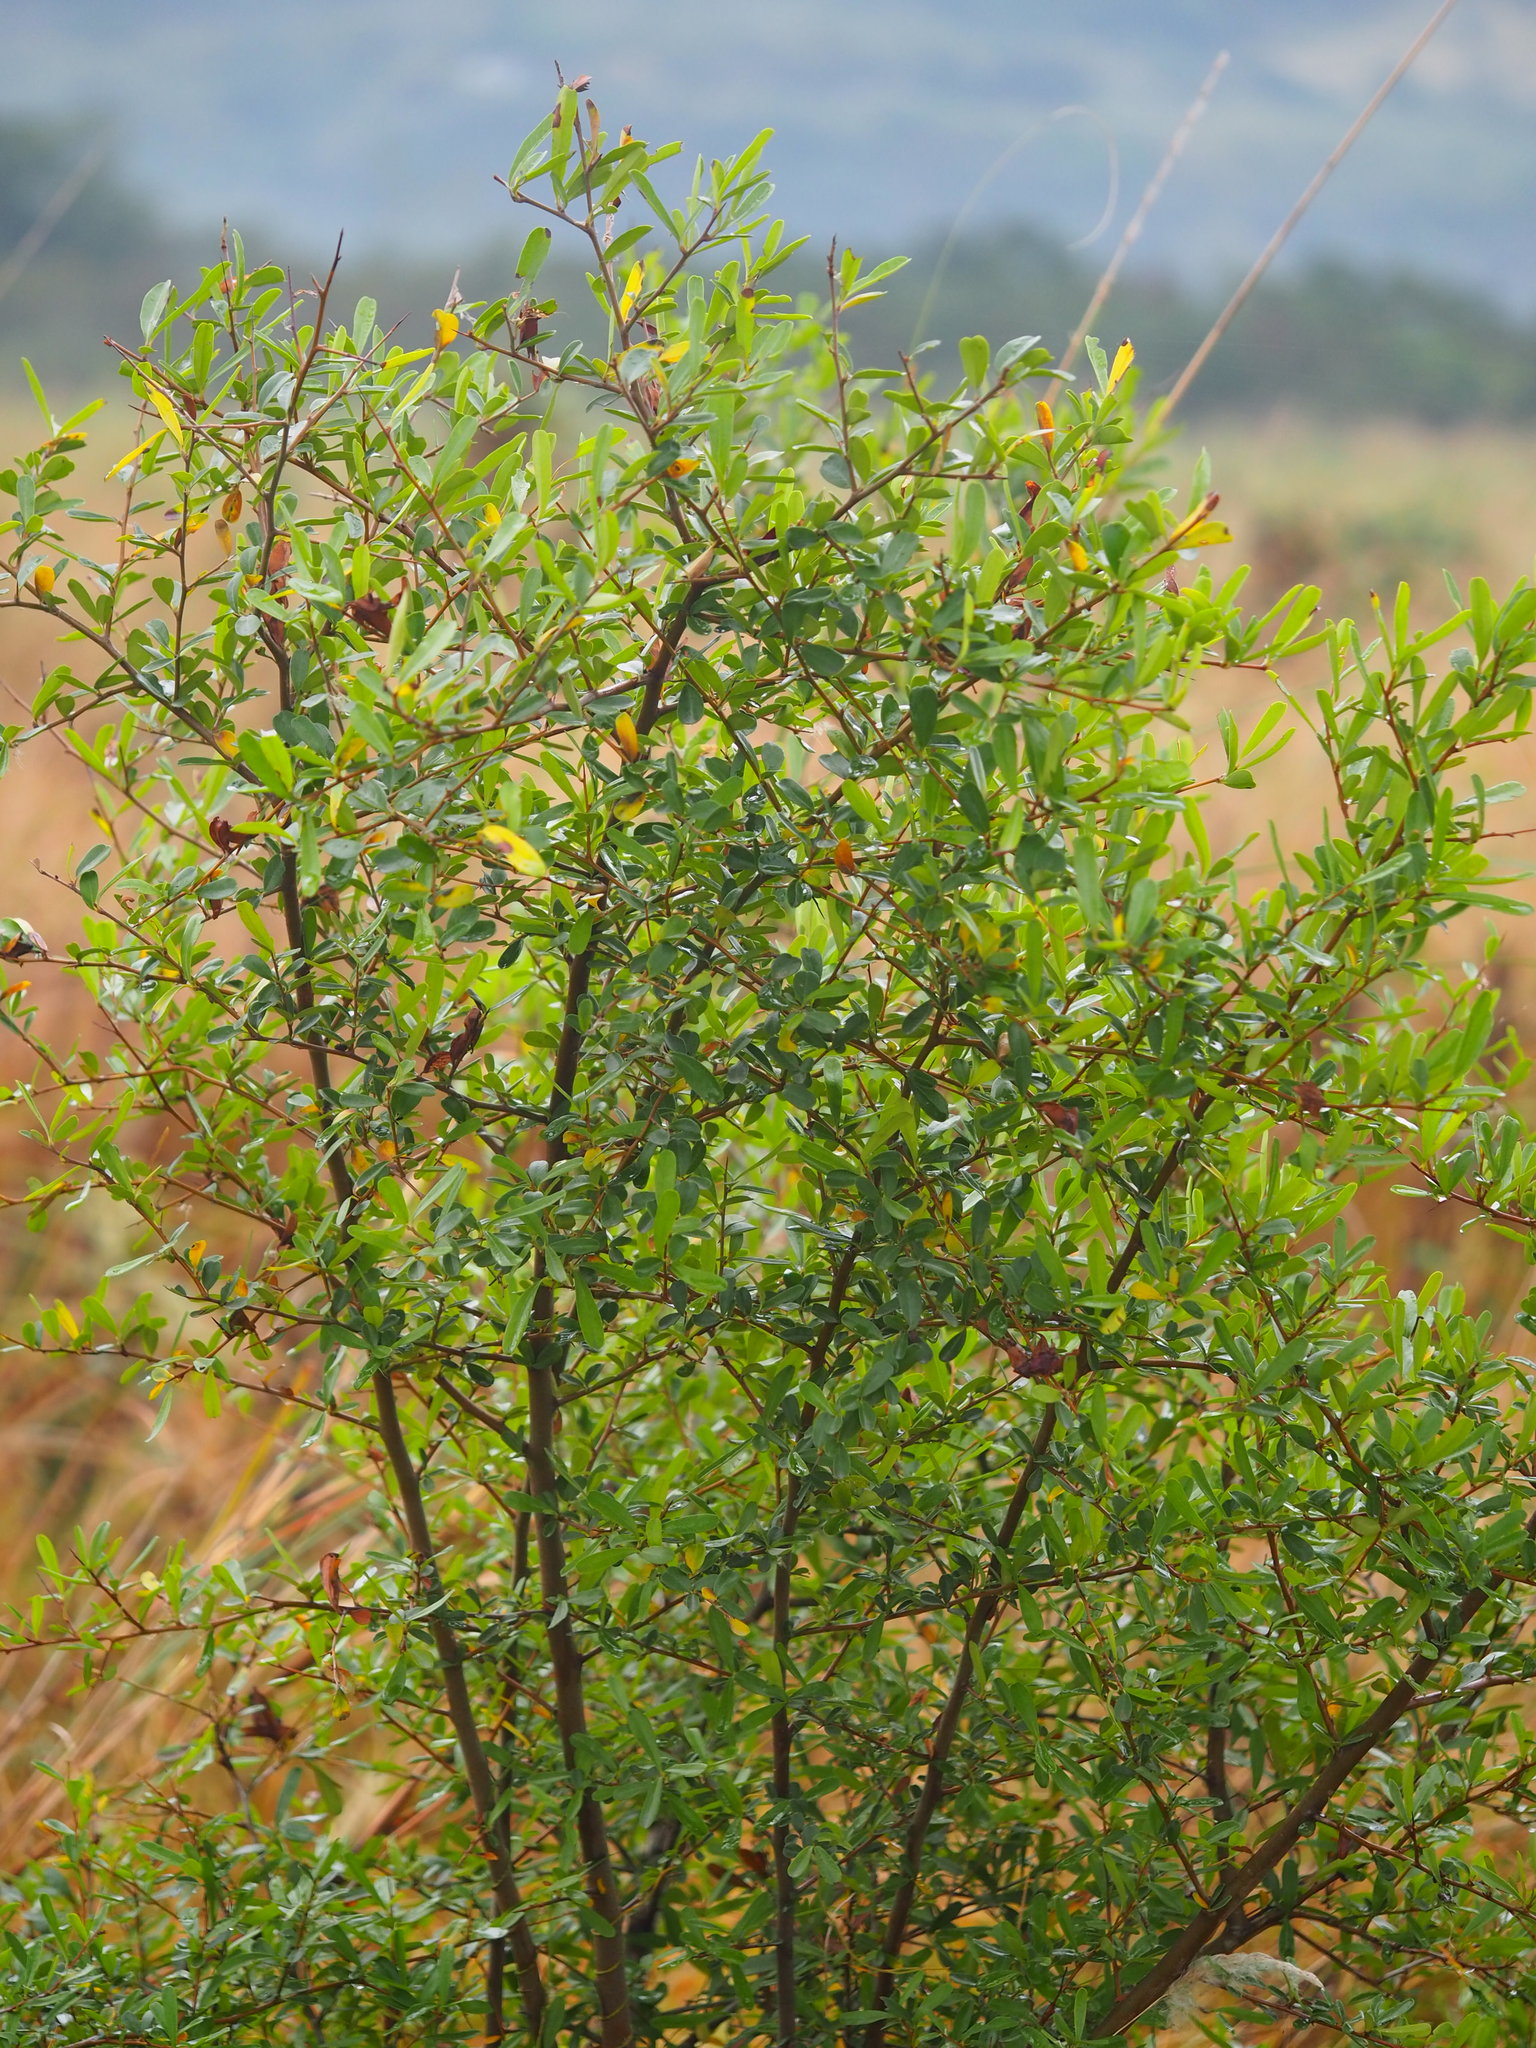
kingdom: Plantae
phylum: Tracheophyta
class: Magnoliopsida
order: Rosales
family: Rosaceae
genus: Pyracantha
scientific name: Pyracantha koidzumii
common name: Formosa firethorn
